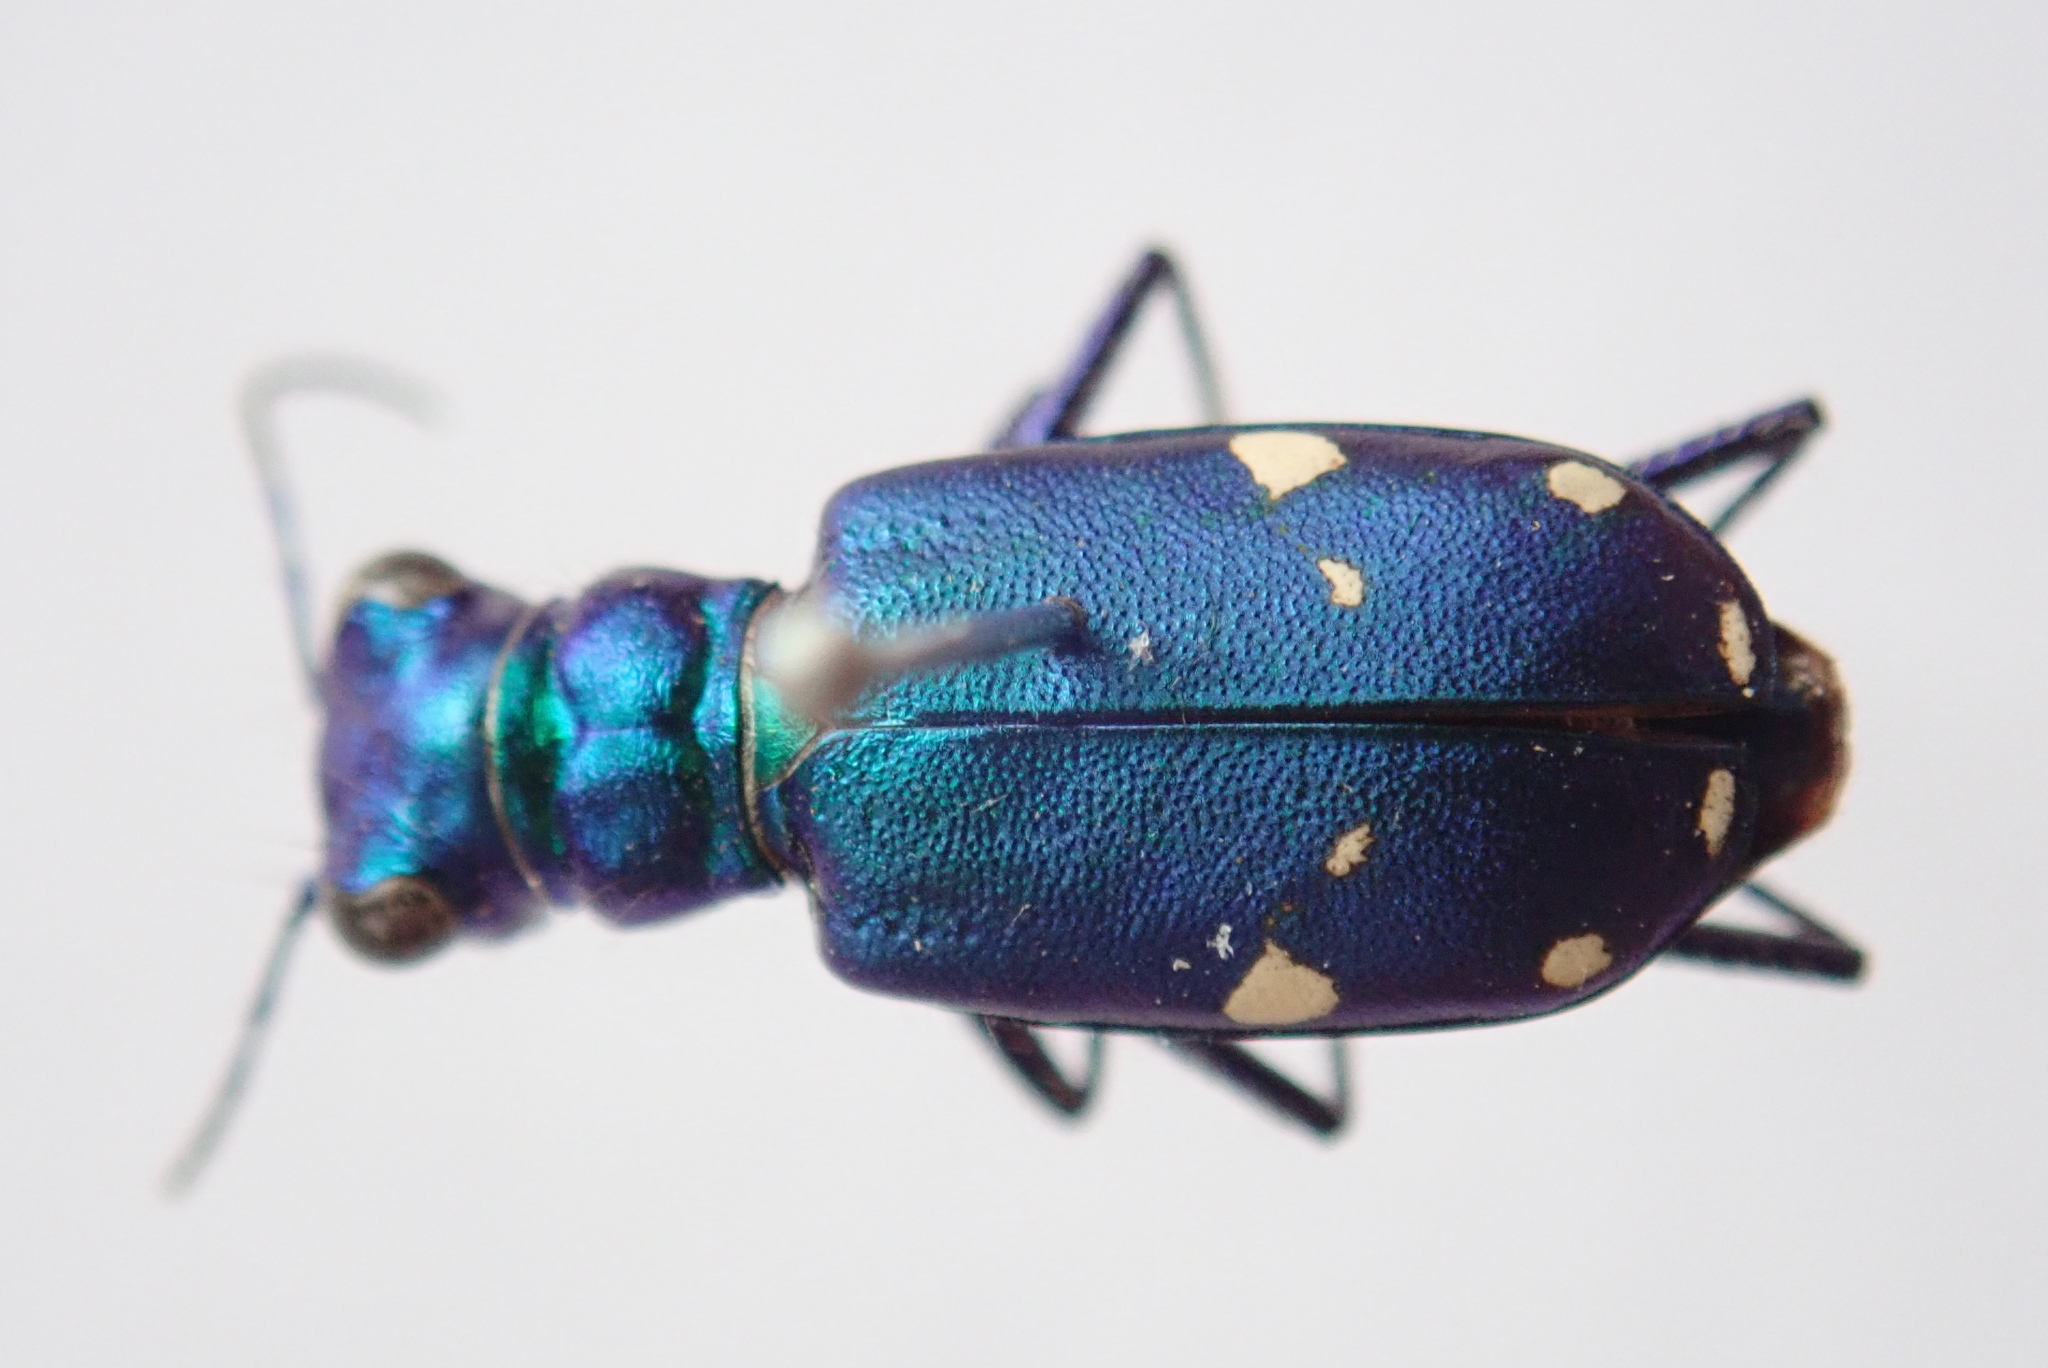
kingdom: Animalia
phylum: Arthropoda
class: Insecta
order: Coleoptera
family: Carabidae
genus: Cicindela
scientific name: Cicindela sexguttata
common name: Six-spotted tiger beetle
